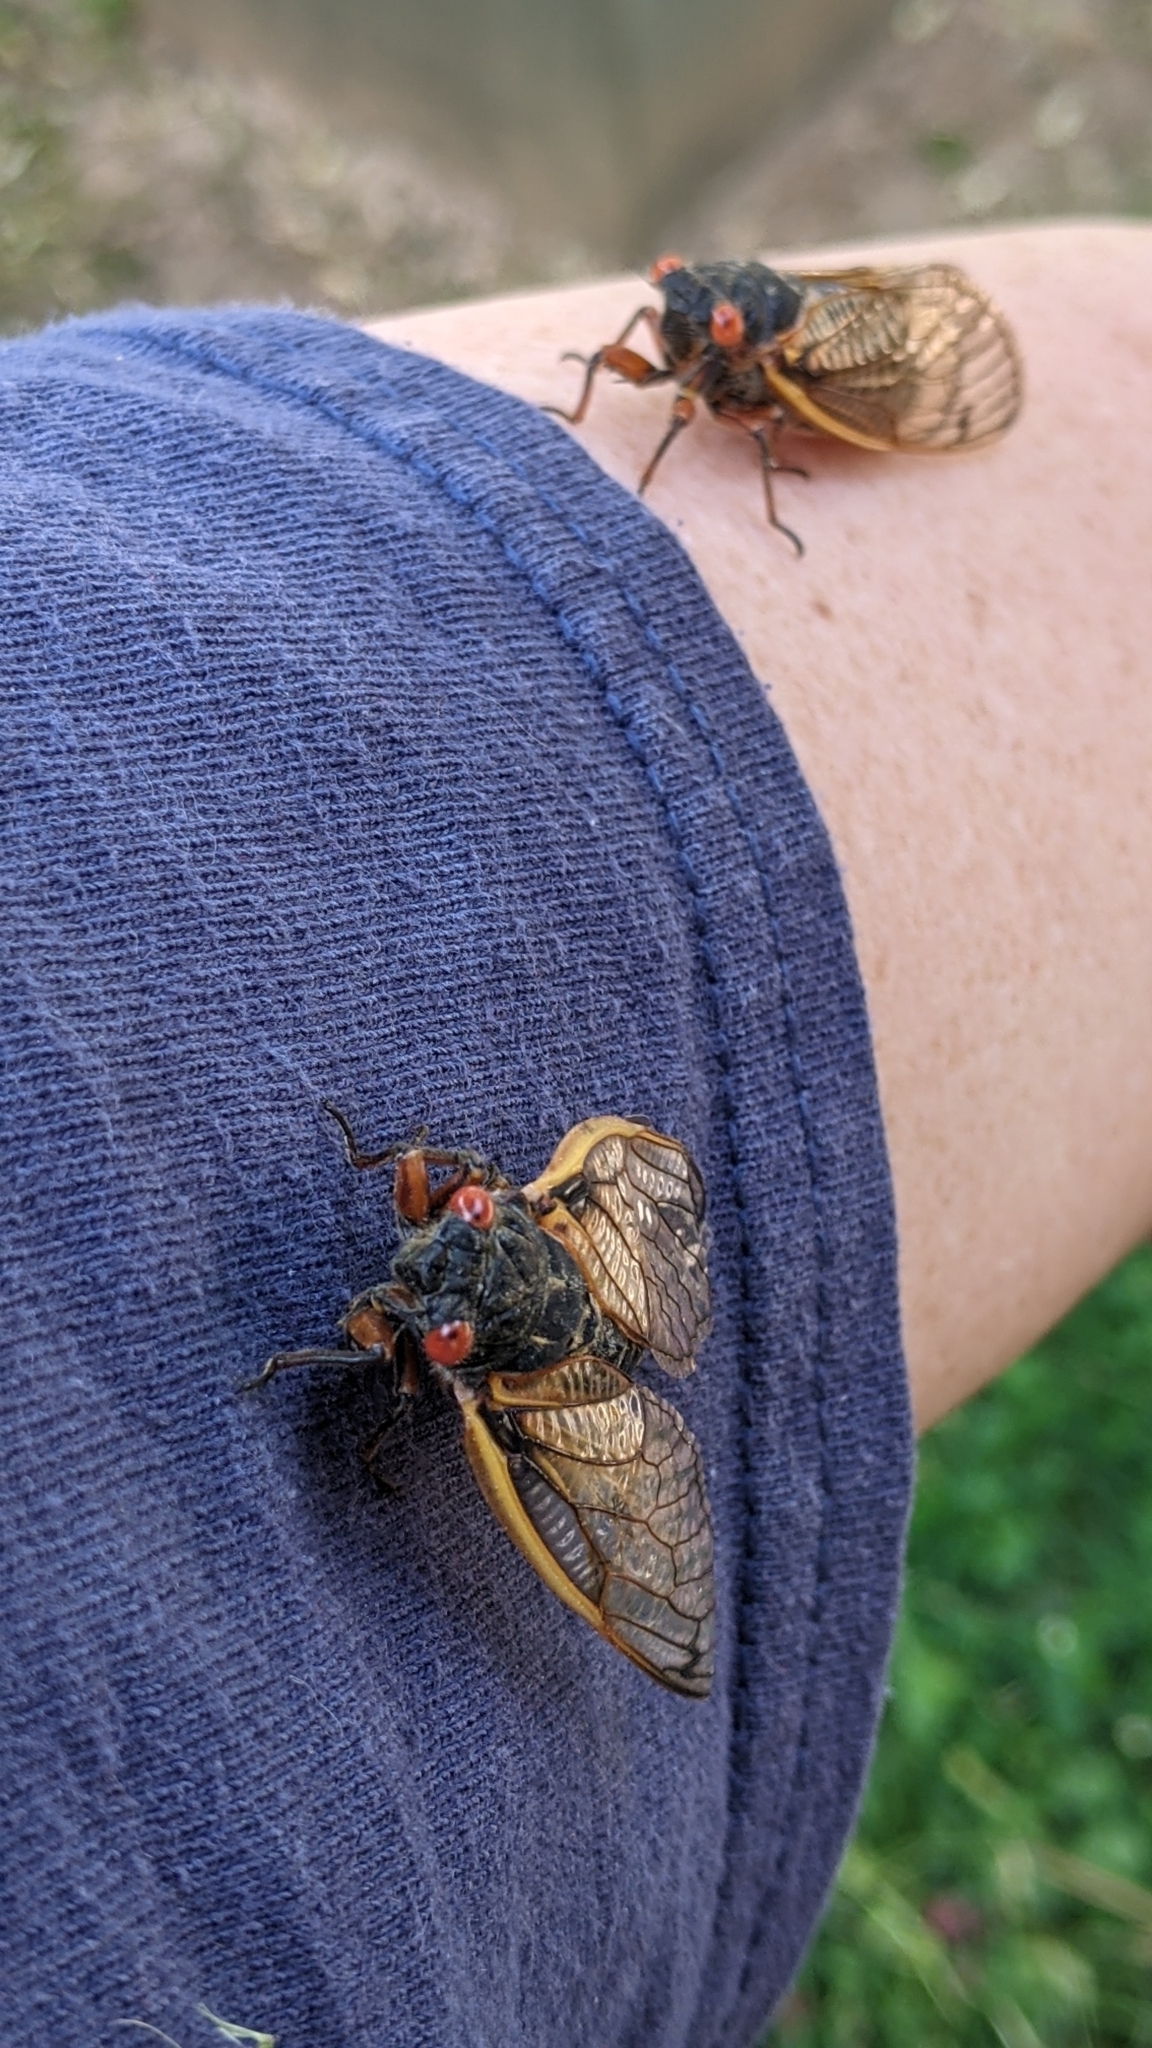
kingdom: Animalia
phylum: Arthropoda
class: Insecta
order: Hemiptera
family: Cicadidae
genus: Magicicada
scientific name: Magicicada septendecim
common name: Periodical cicada
